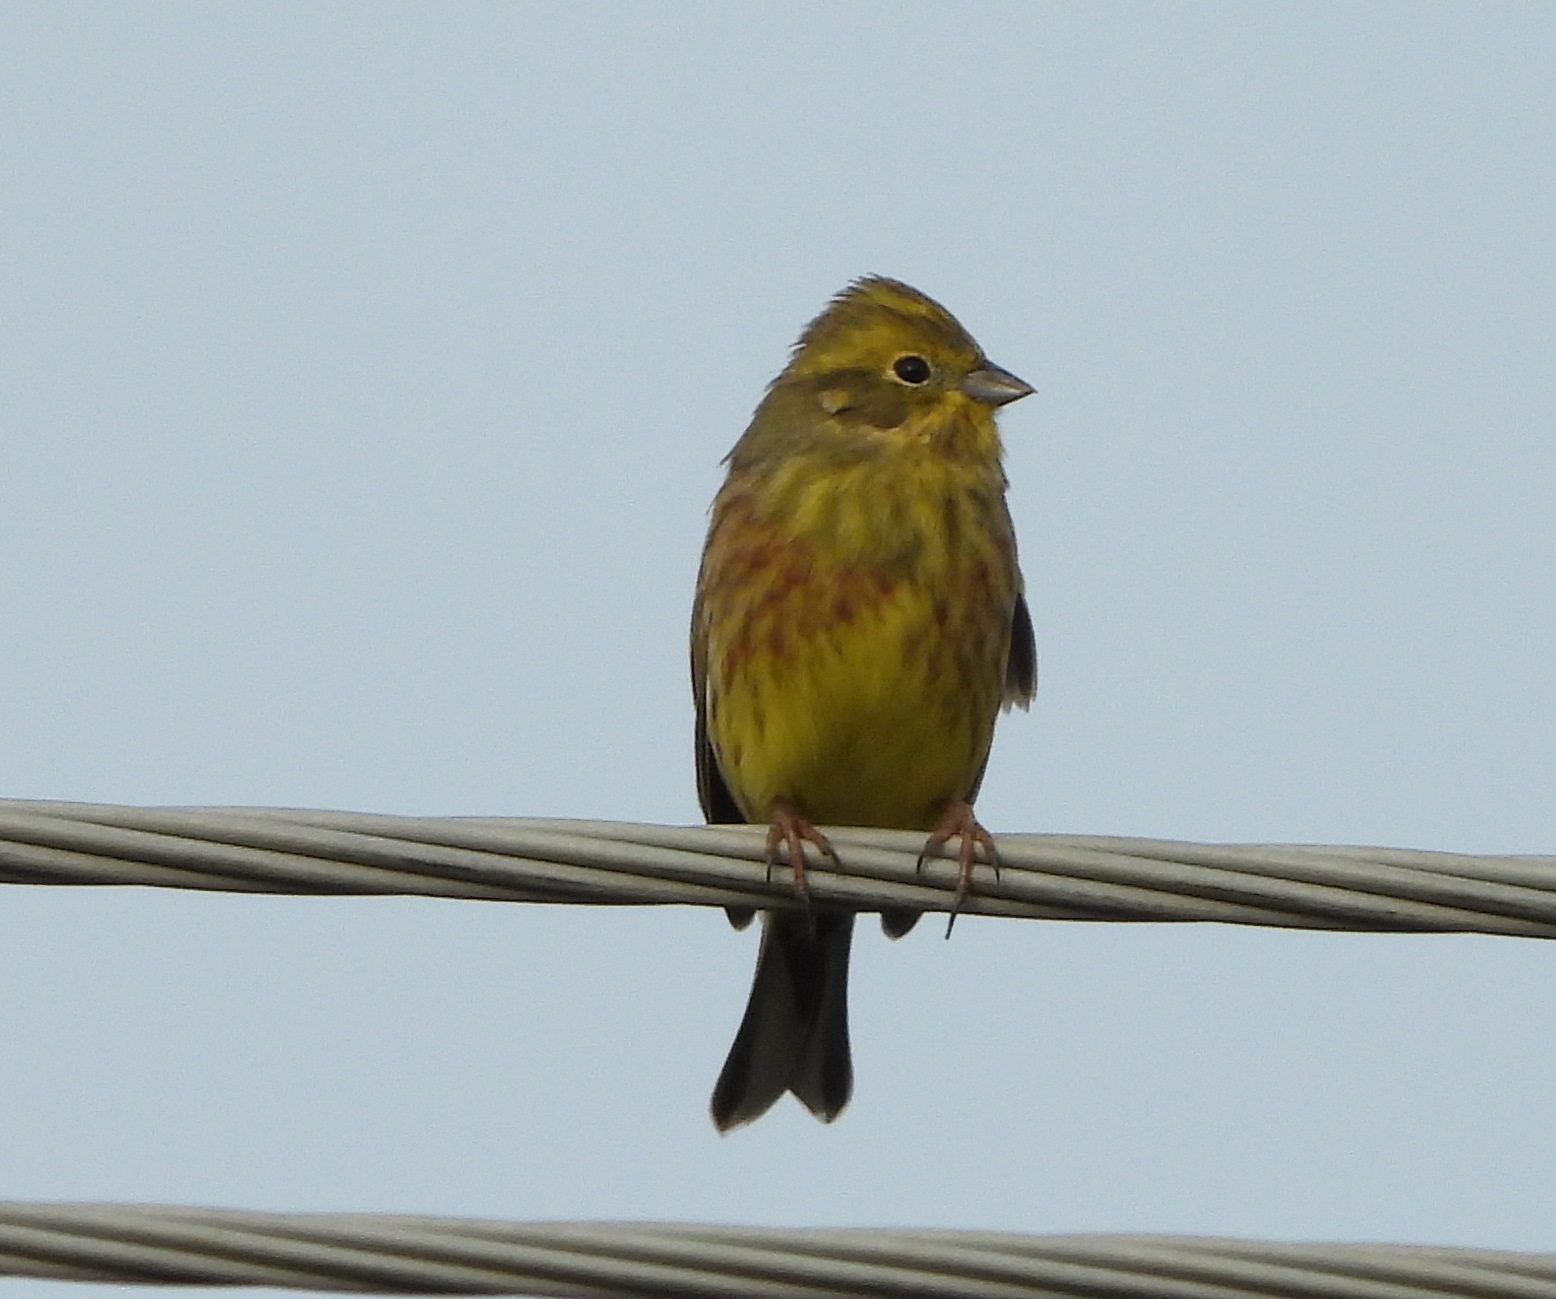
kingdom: Animalia
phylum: Chordata
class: Aves
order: Passeriformes
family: Emberizidae
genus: Emberiza
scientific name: Emberiza citrinella
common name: Yellowhammer
